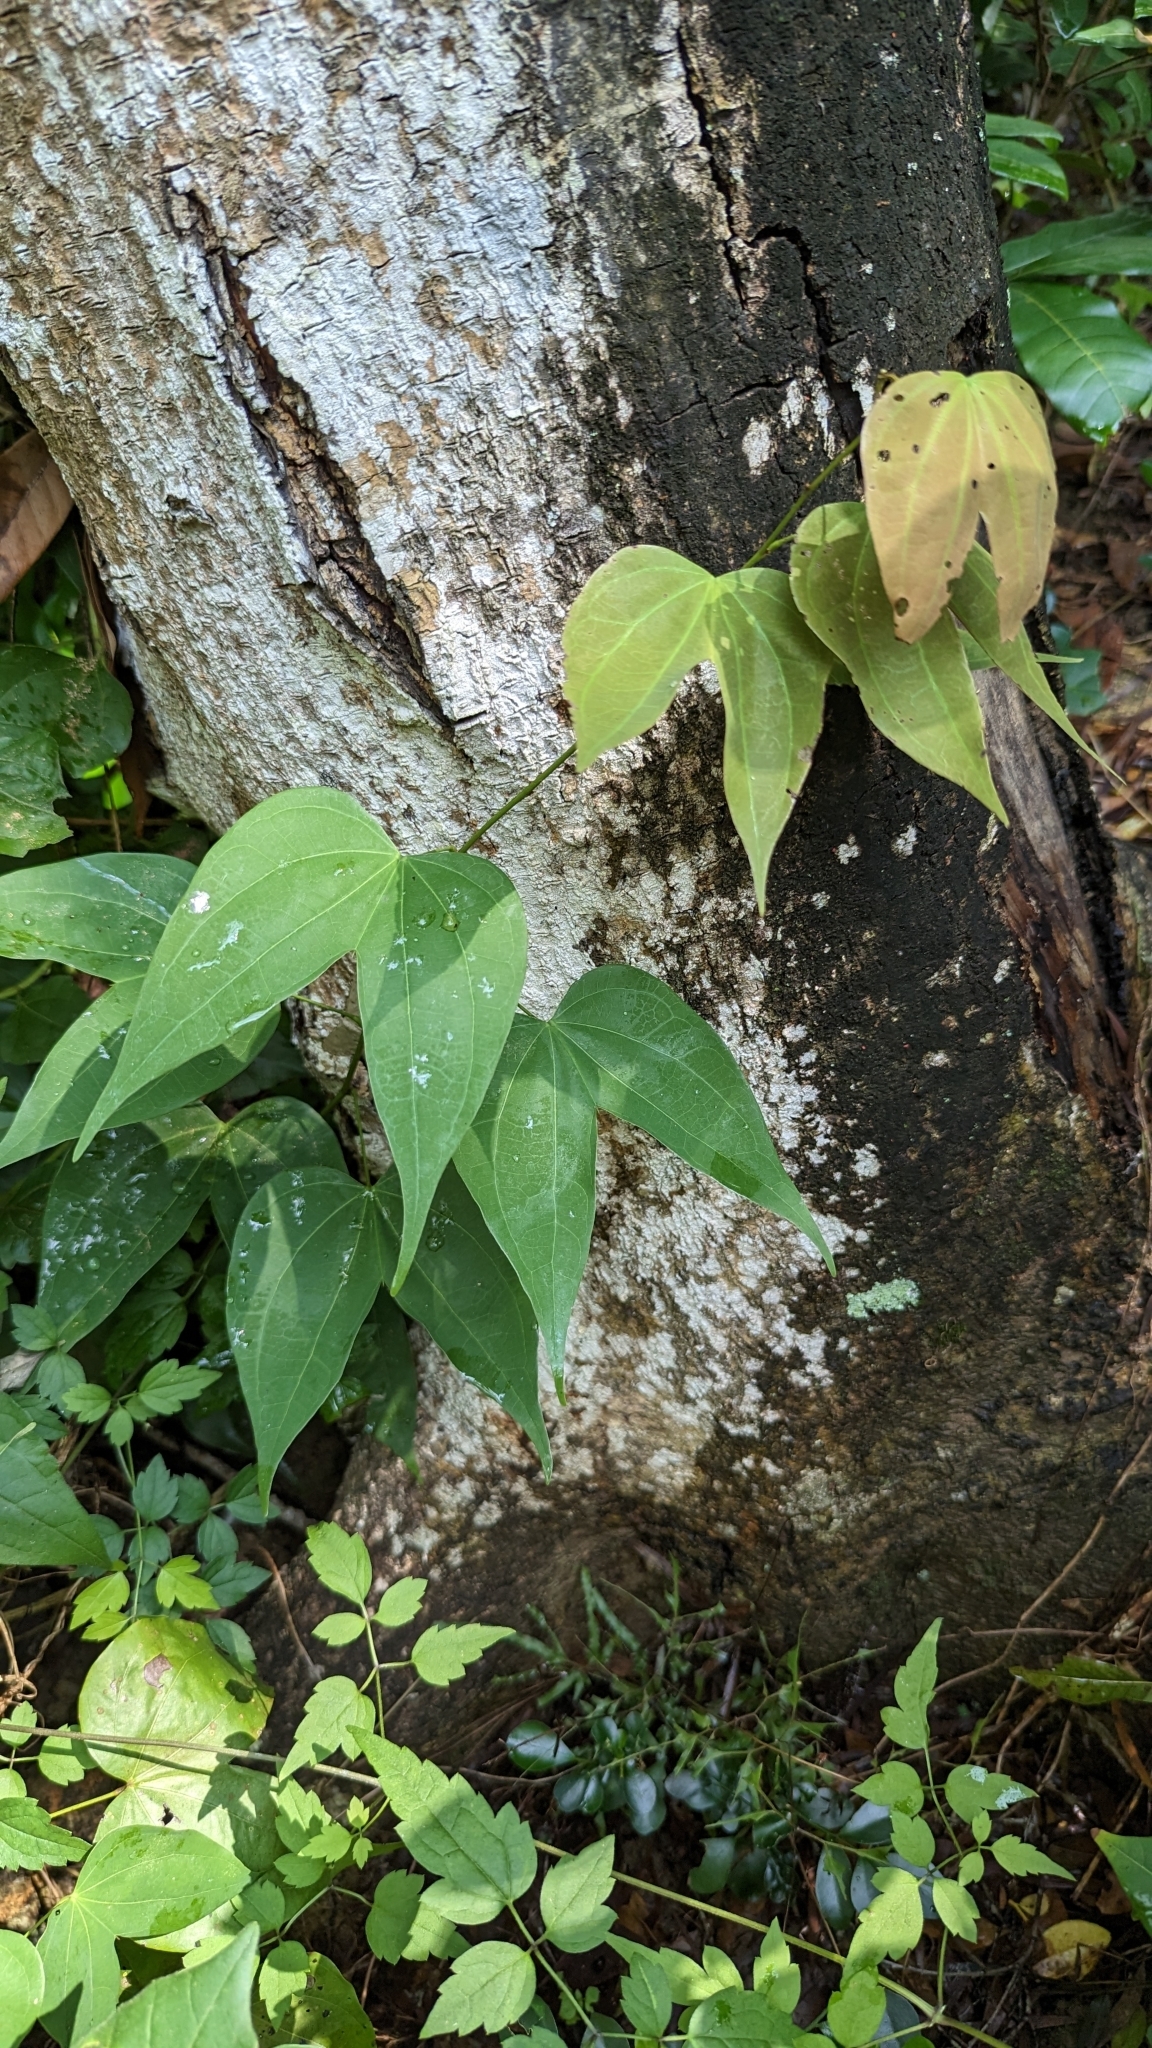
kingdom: Plantae
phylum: Tracheophyta
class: Magnoliopsida
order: Fabales
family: Fabaceae
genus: Phanera
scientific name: Phanera championii
